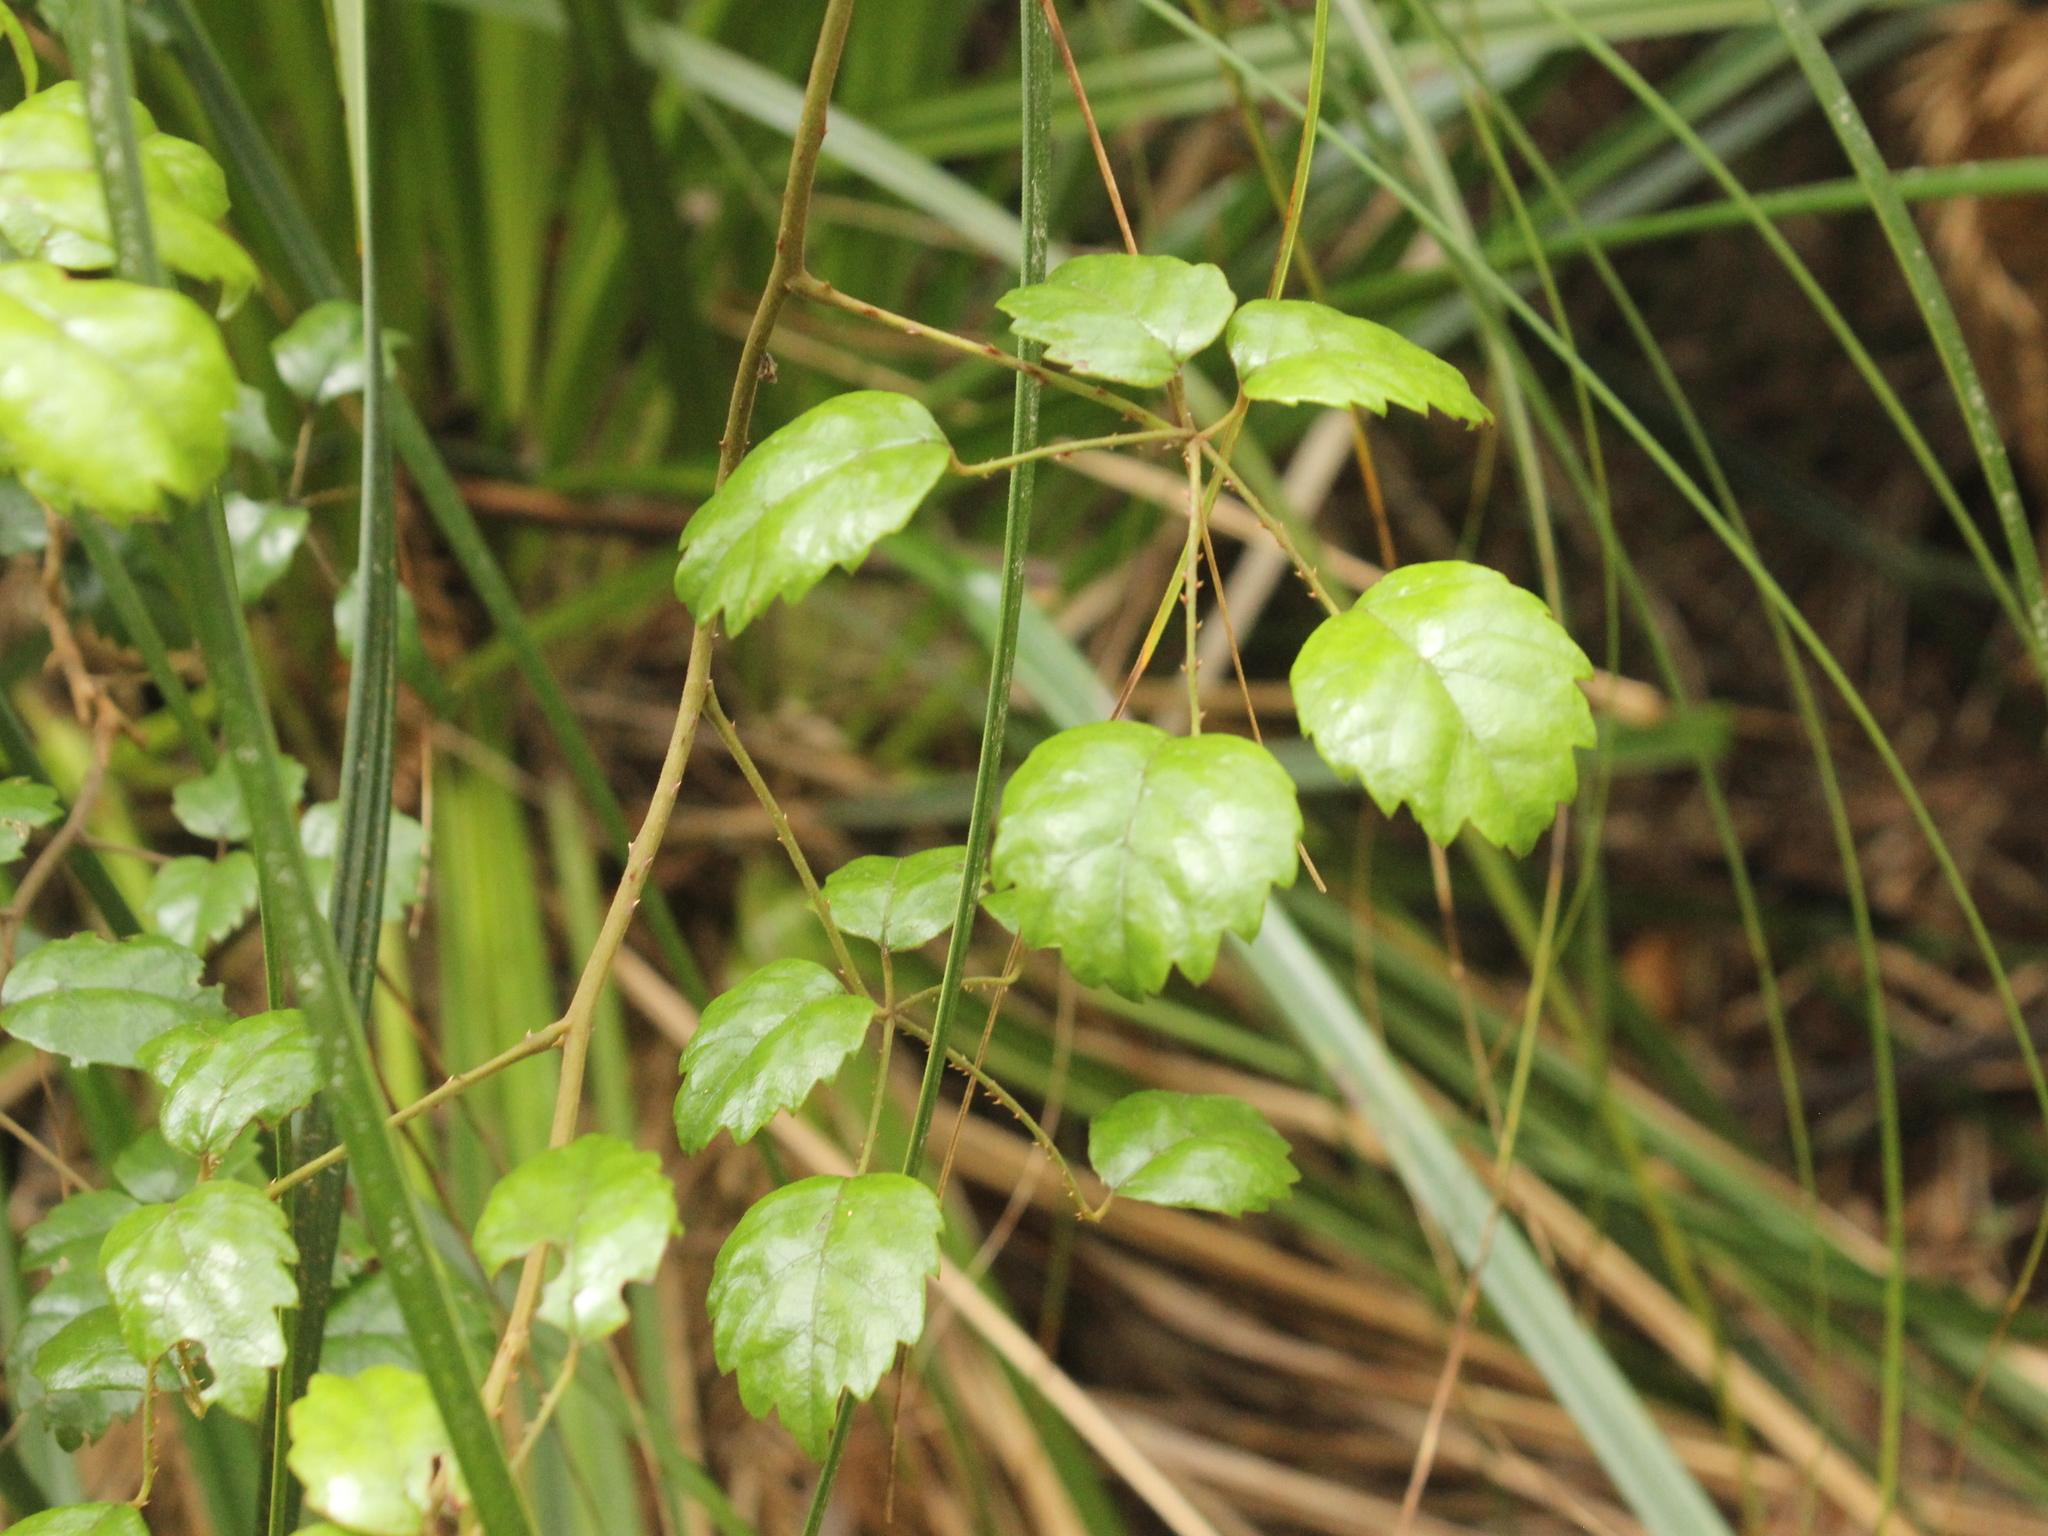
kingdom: Plantae
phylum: Tracheophyta
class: Magnoliopsida
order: Rosales
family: Rosaceae
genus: Rubus
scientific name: Rubus australis
